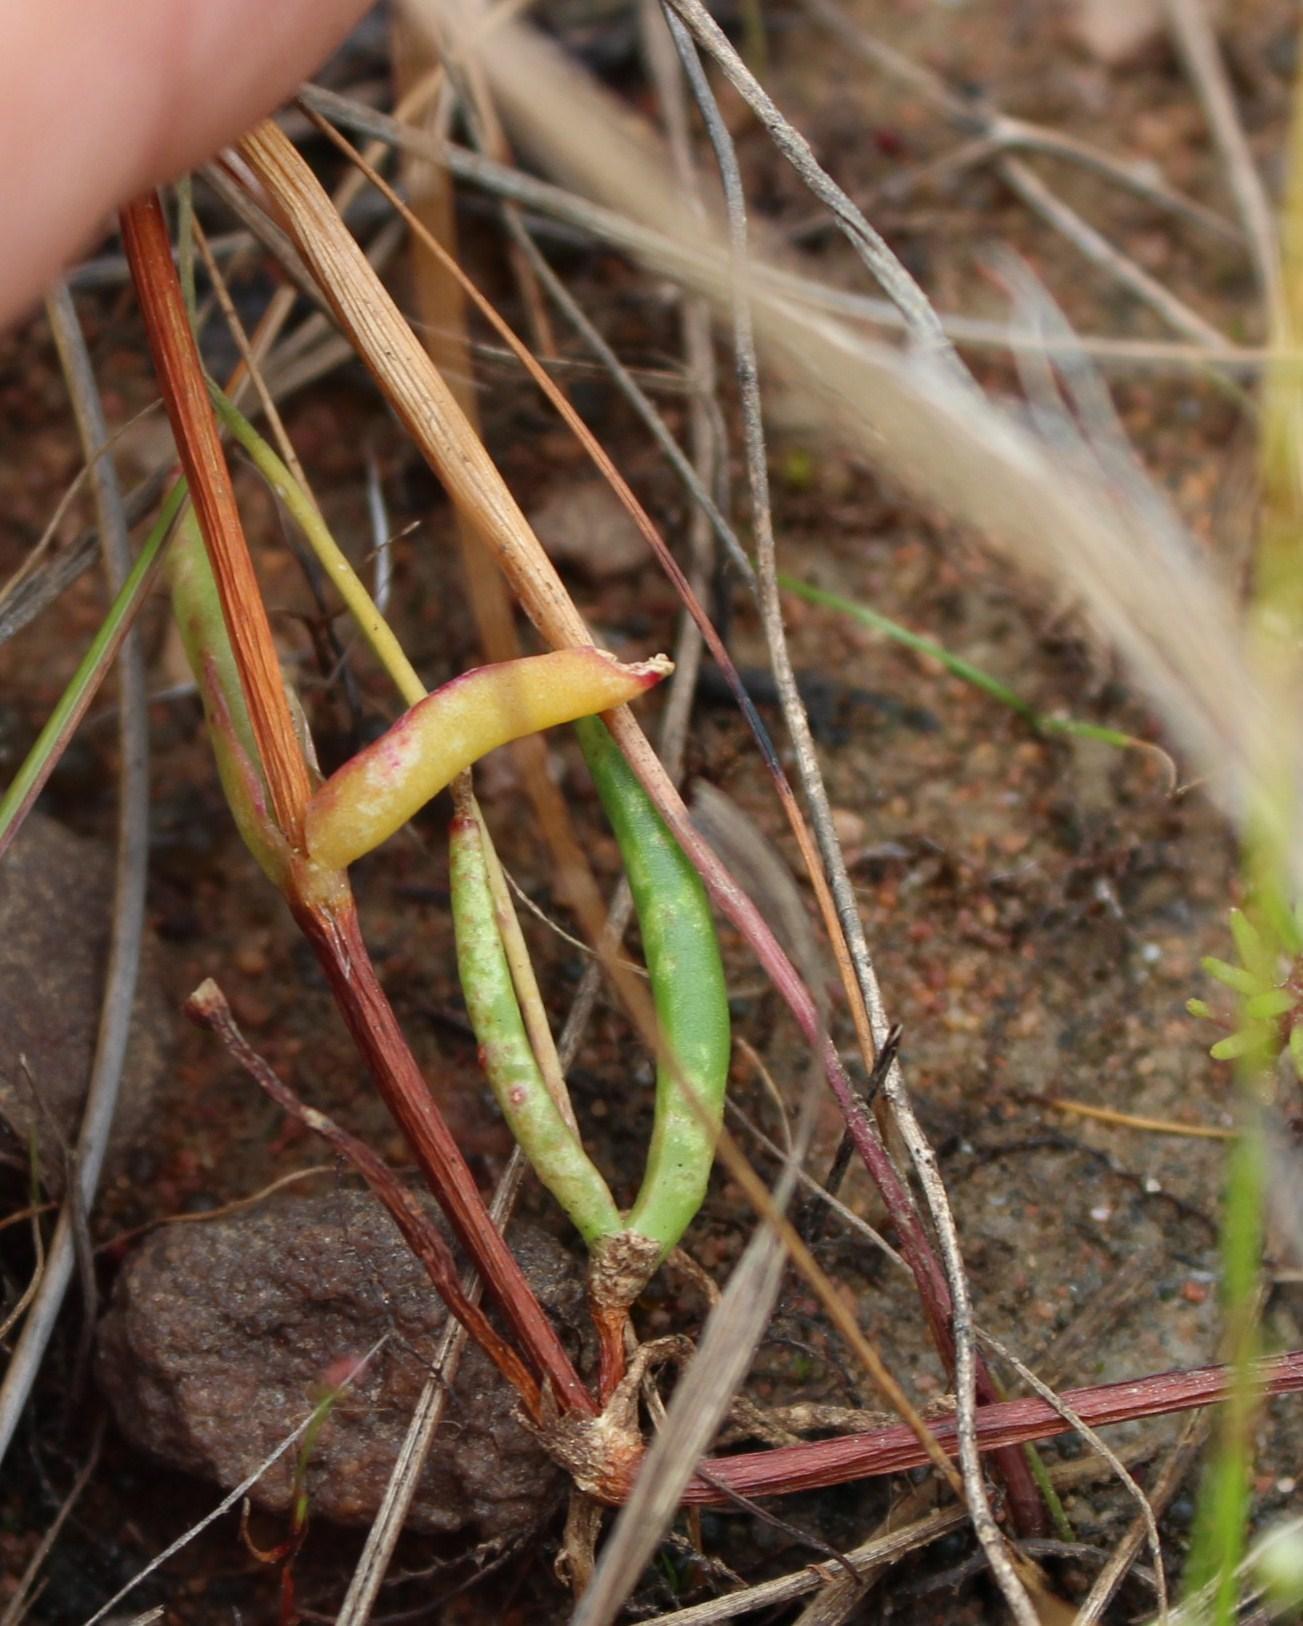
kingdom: Plantae
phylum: Tracheophyta
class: Magnoliopsida
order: Caryophyllales
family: Aizoaceae
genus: Lampranthus
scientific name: Lampranthus filicaulis
